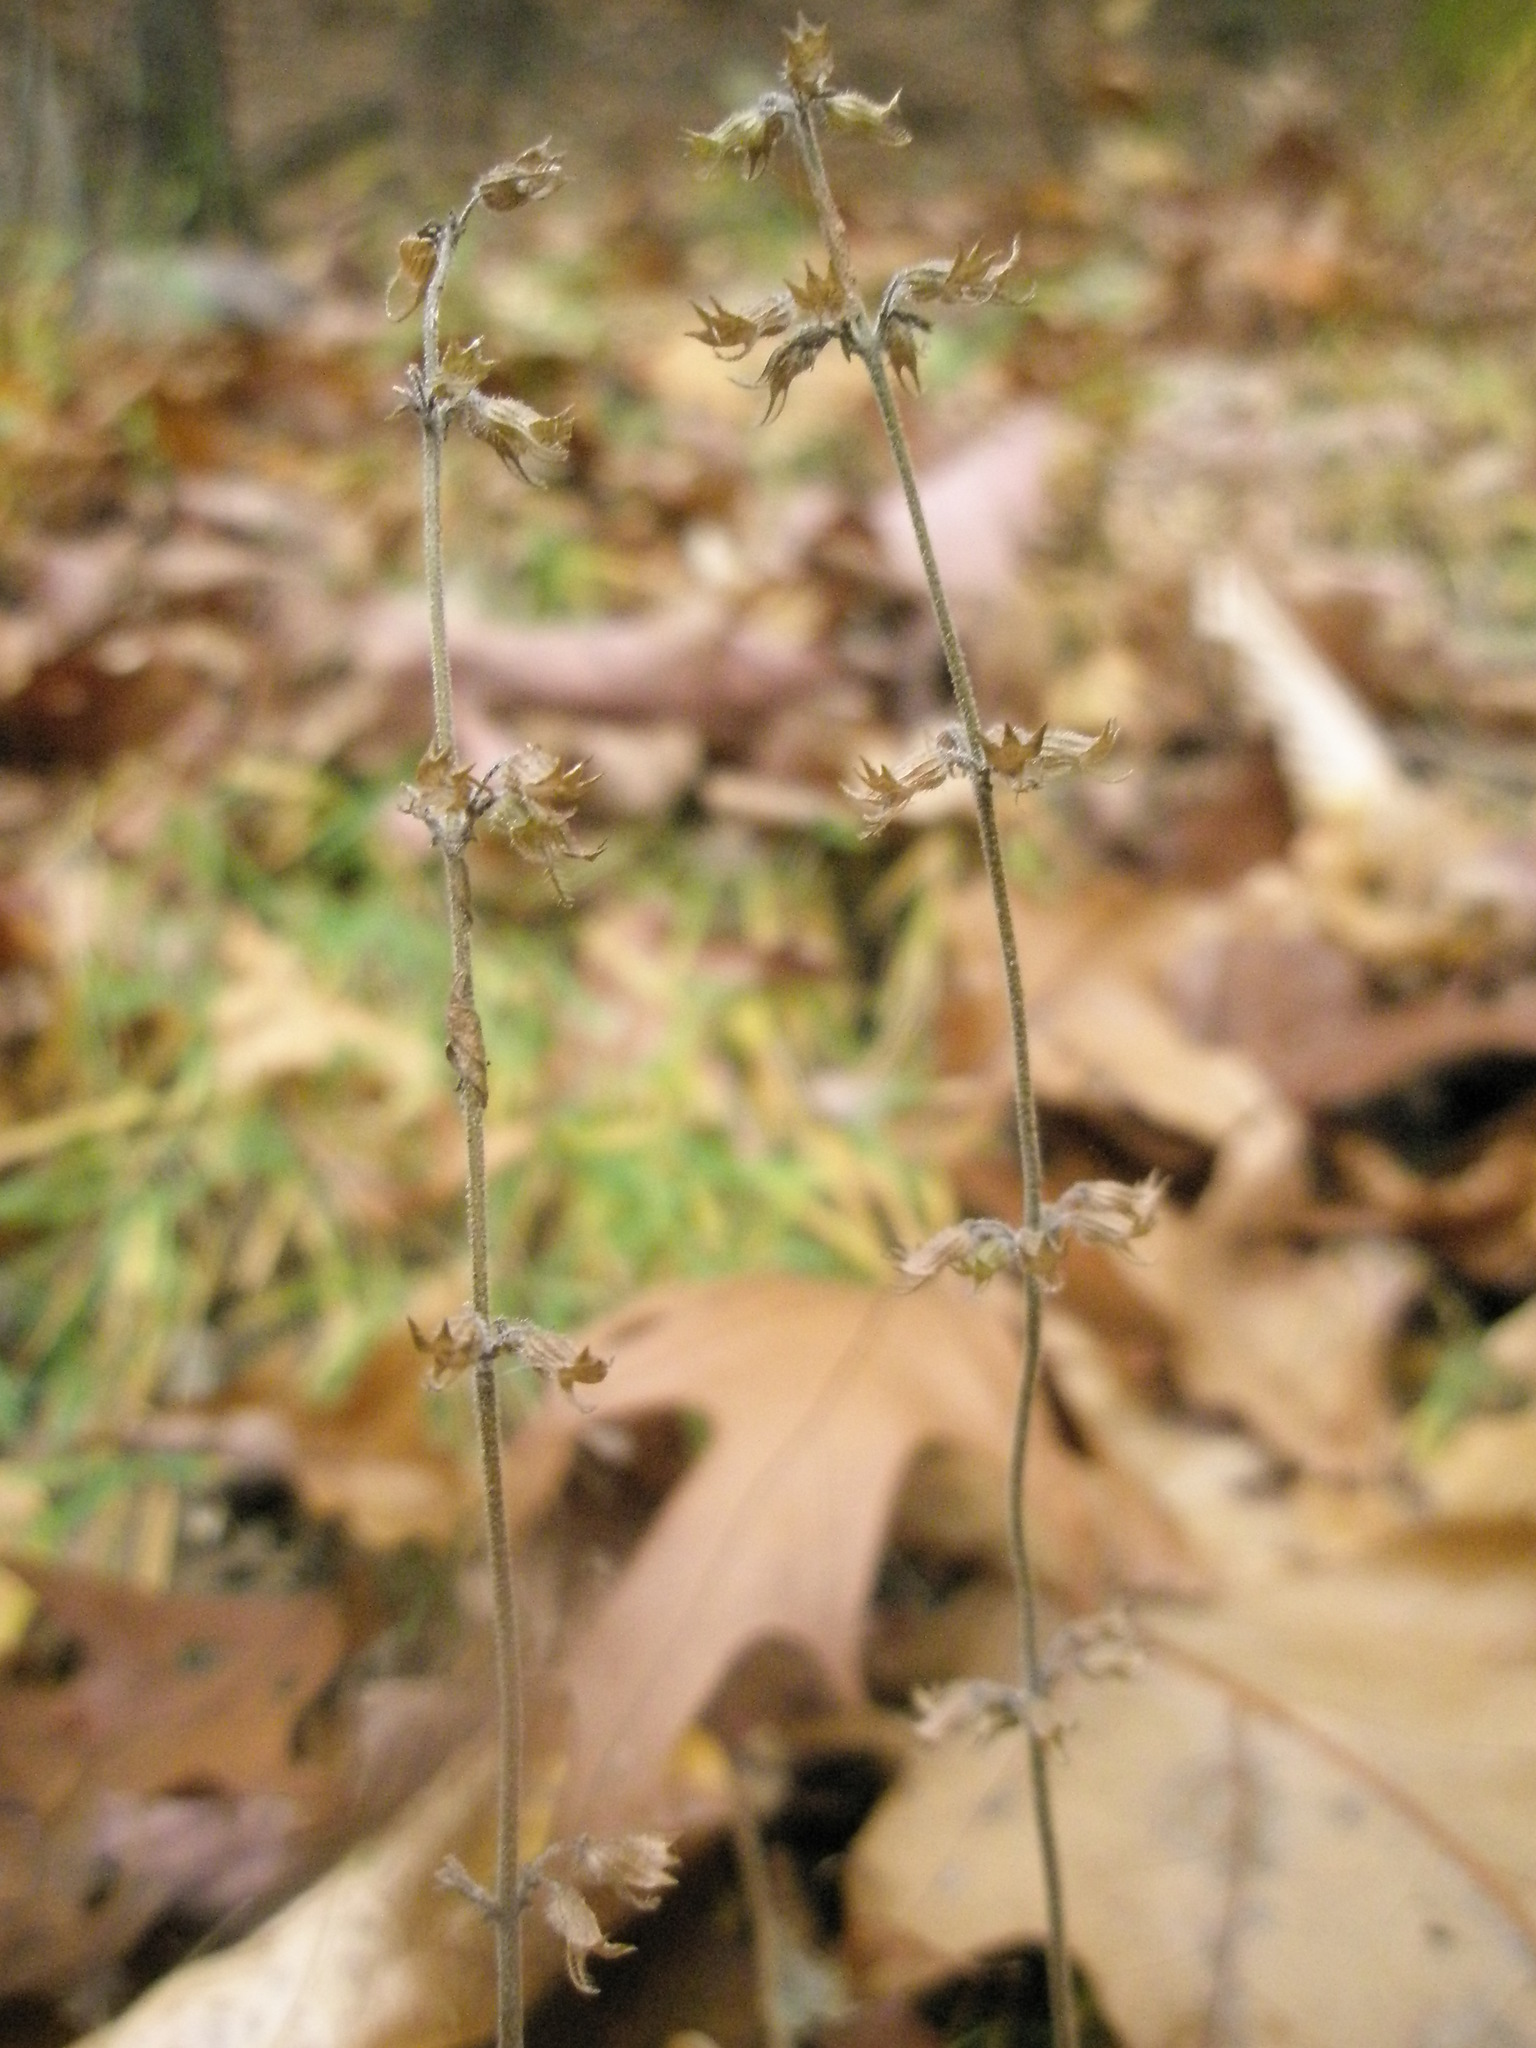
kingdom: Plantae
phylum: Tracheophyta
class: Magnoliopsida
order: Lamiales
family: Lamiaceae
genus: Hedeoma
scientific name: Hedeoma pulegioides
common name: American false pennyroyal
